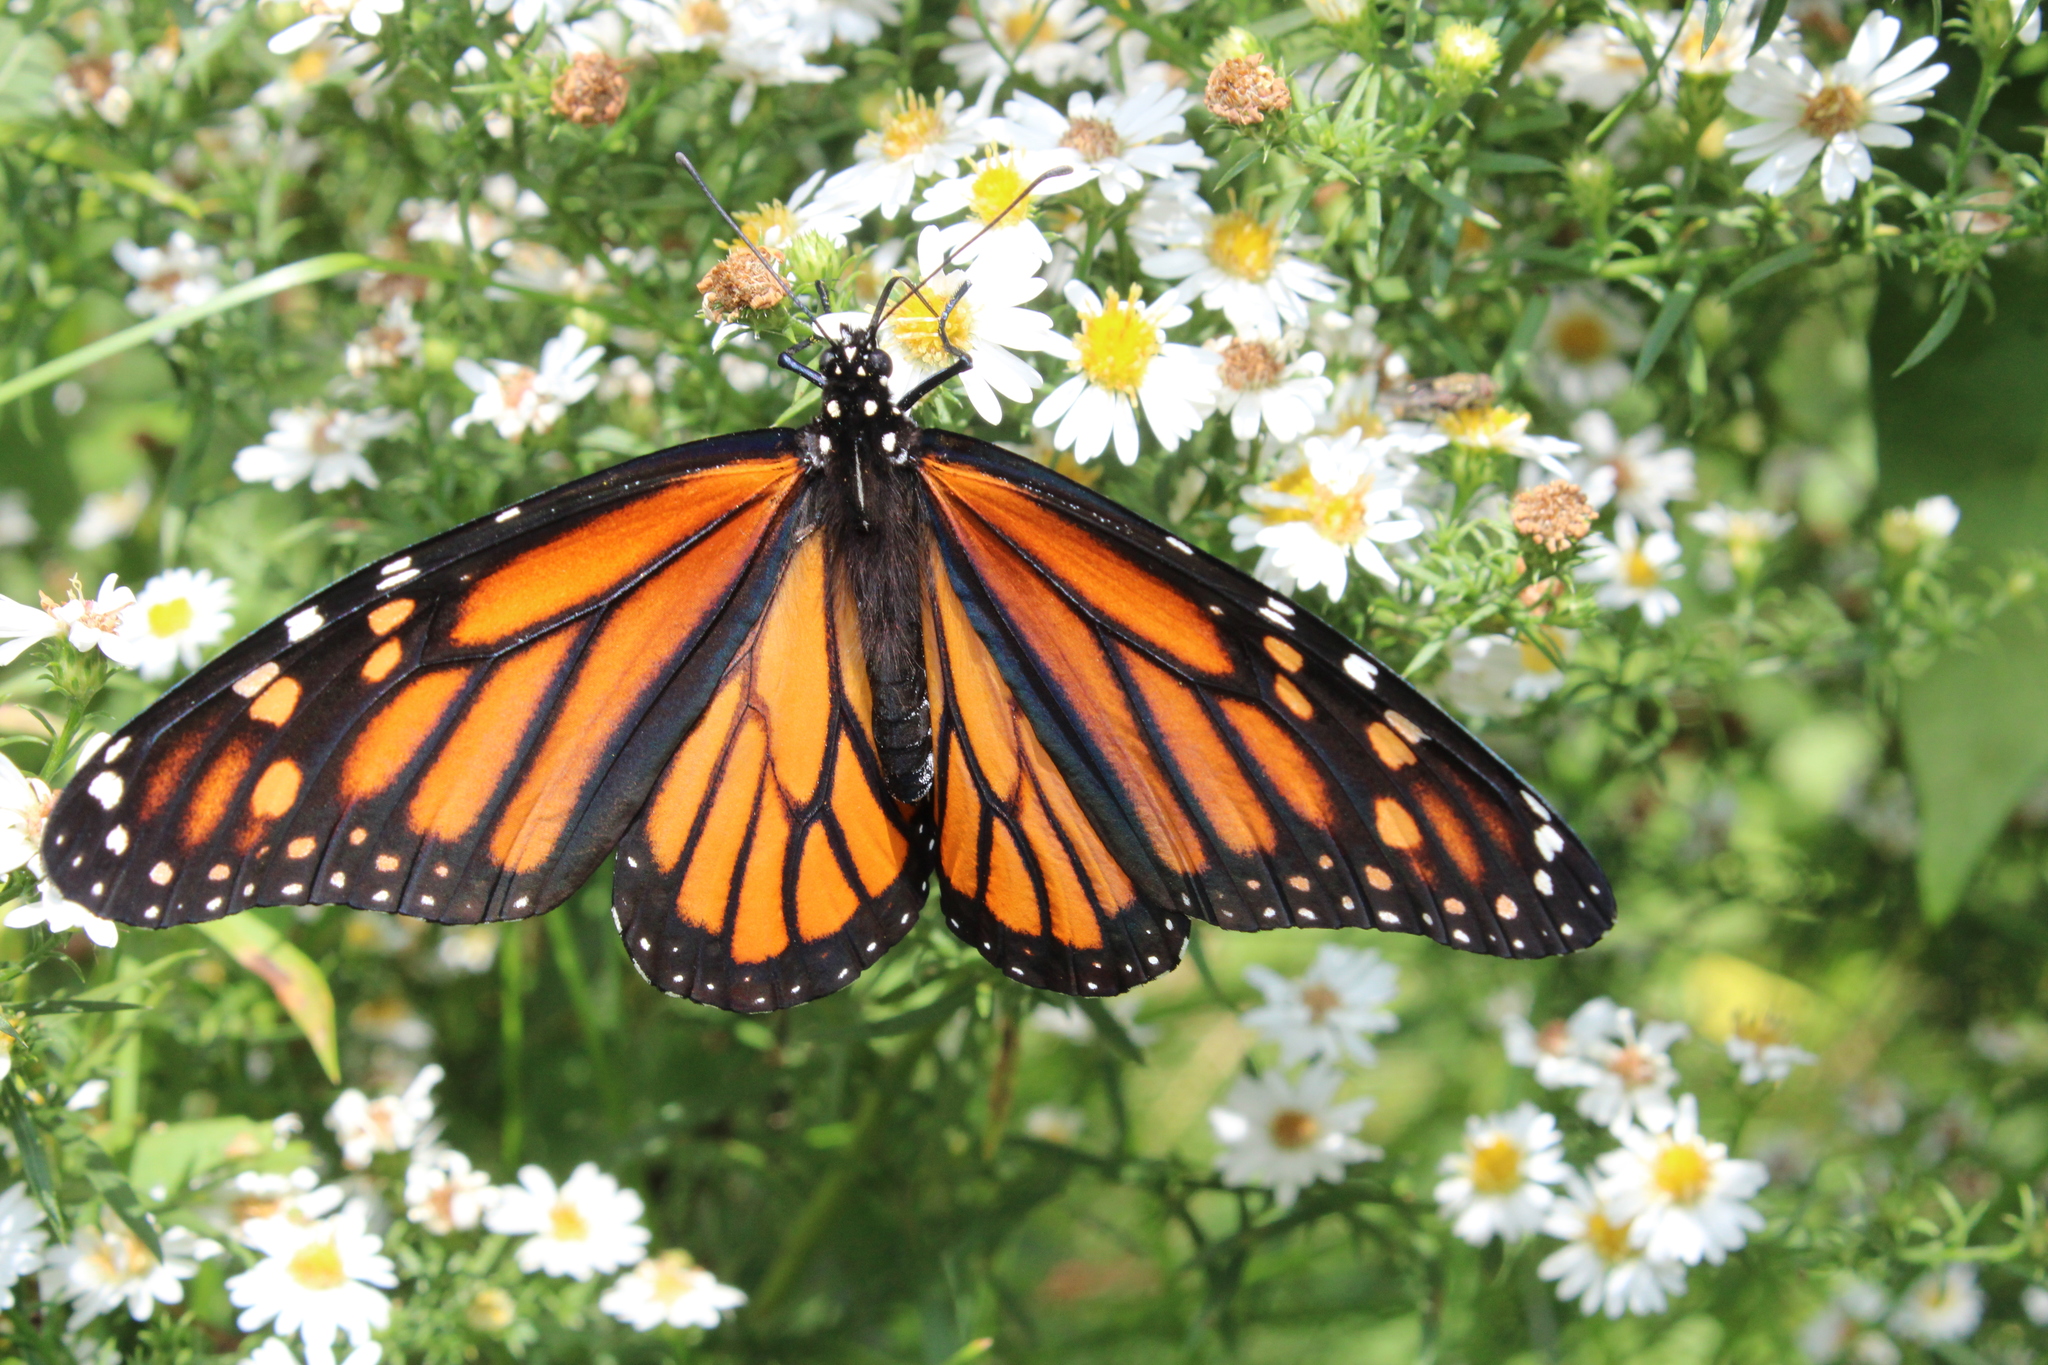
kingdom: Animalia
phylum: Arthropoda
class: Insecta
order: Lepidoptera
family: Nymphalidae
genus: Danaus
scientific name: Danaus plexippus
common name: Monarch
